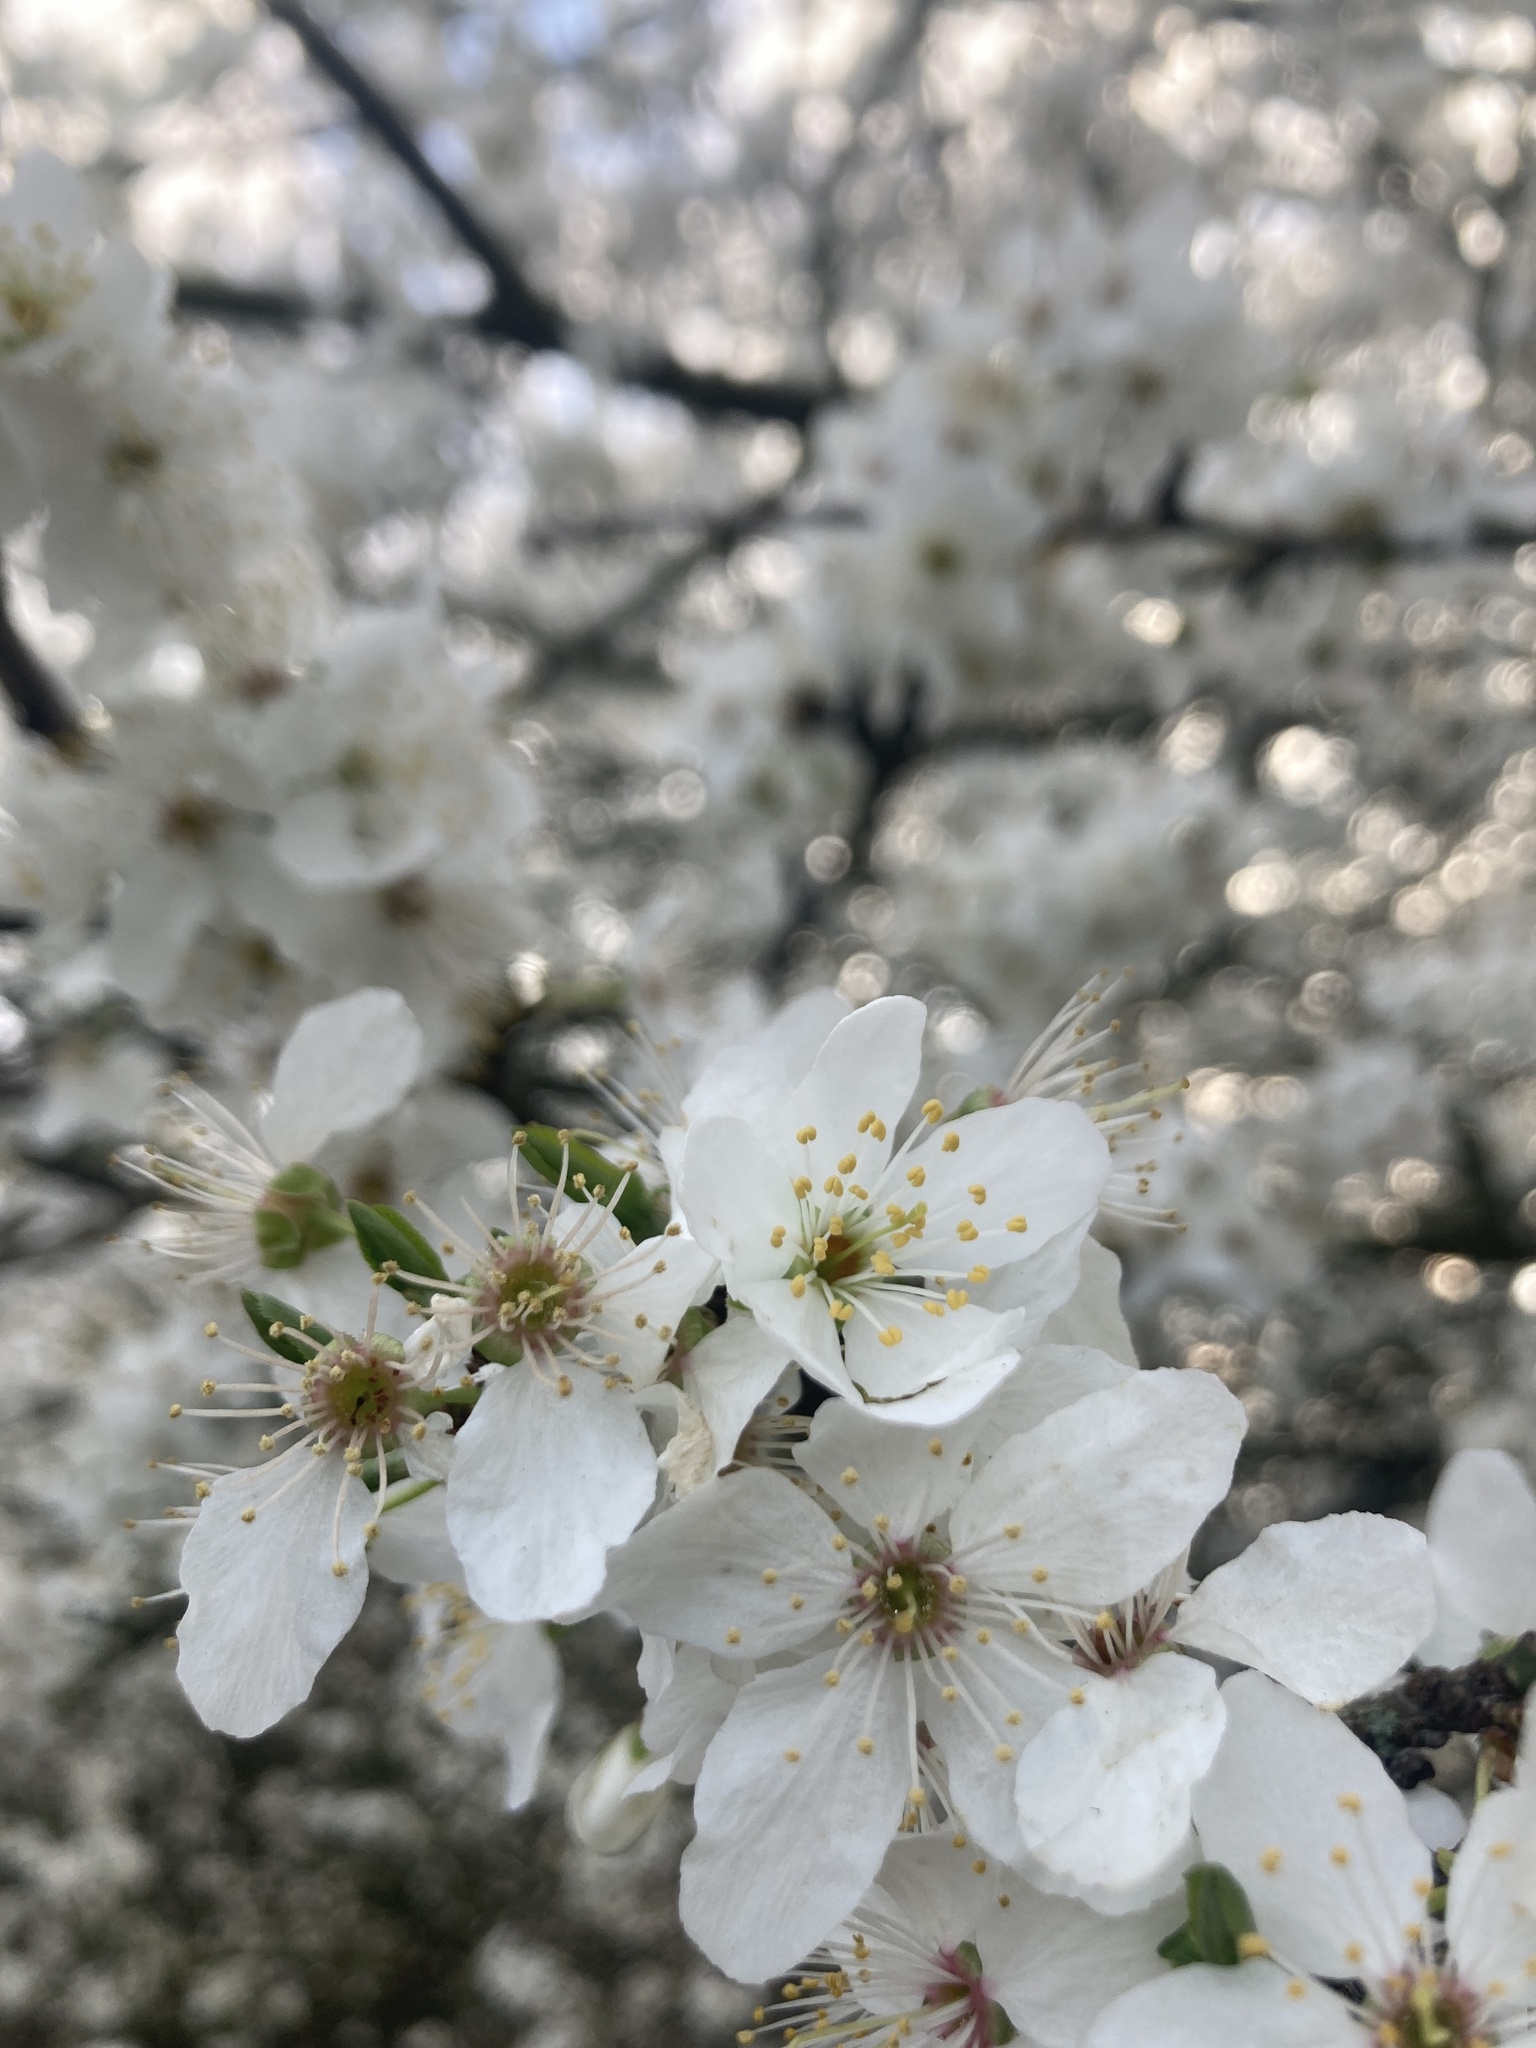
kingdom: Plantae
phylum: Tracheophyta
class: Magnoliopsida
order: Rosales
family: Rosaceae
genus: Prunus
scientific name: Prunus cerasifera
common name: Cherry plum
